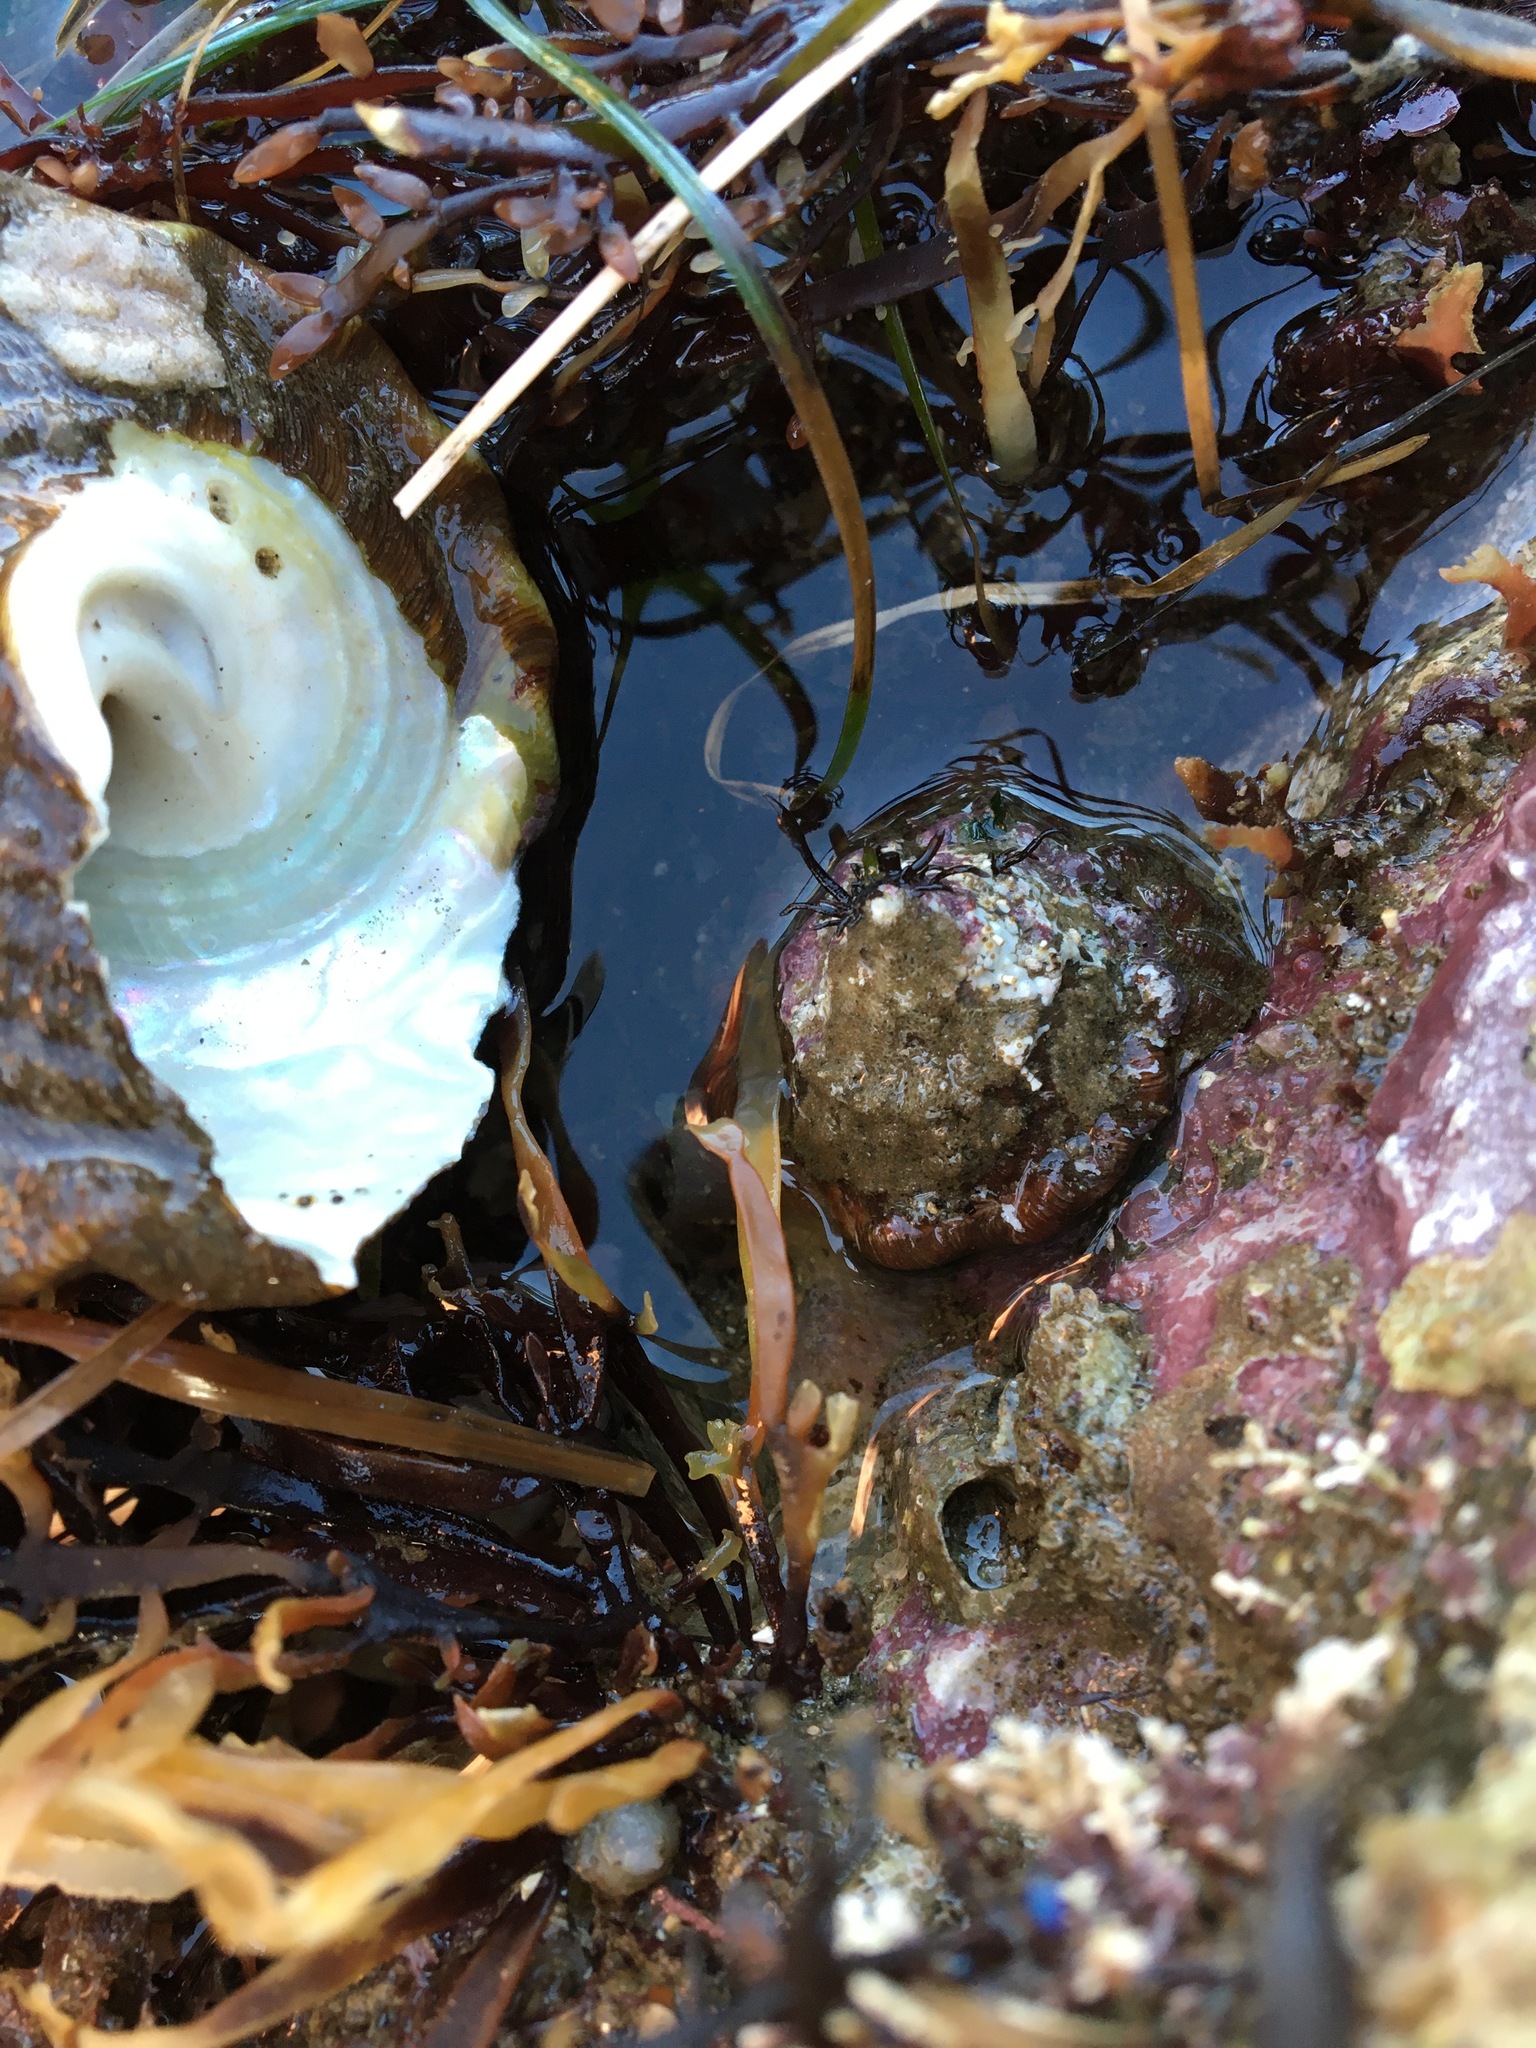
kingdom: Animalia
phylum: Mollusca
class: Gastropoda
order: Trochida
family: Turbinidae
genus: Megastraea
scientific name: Megastraea undosa
